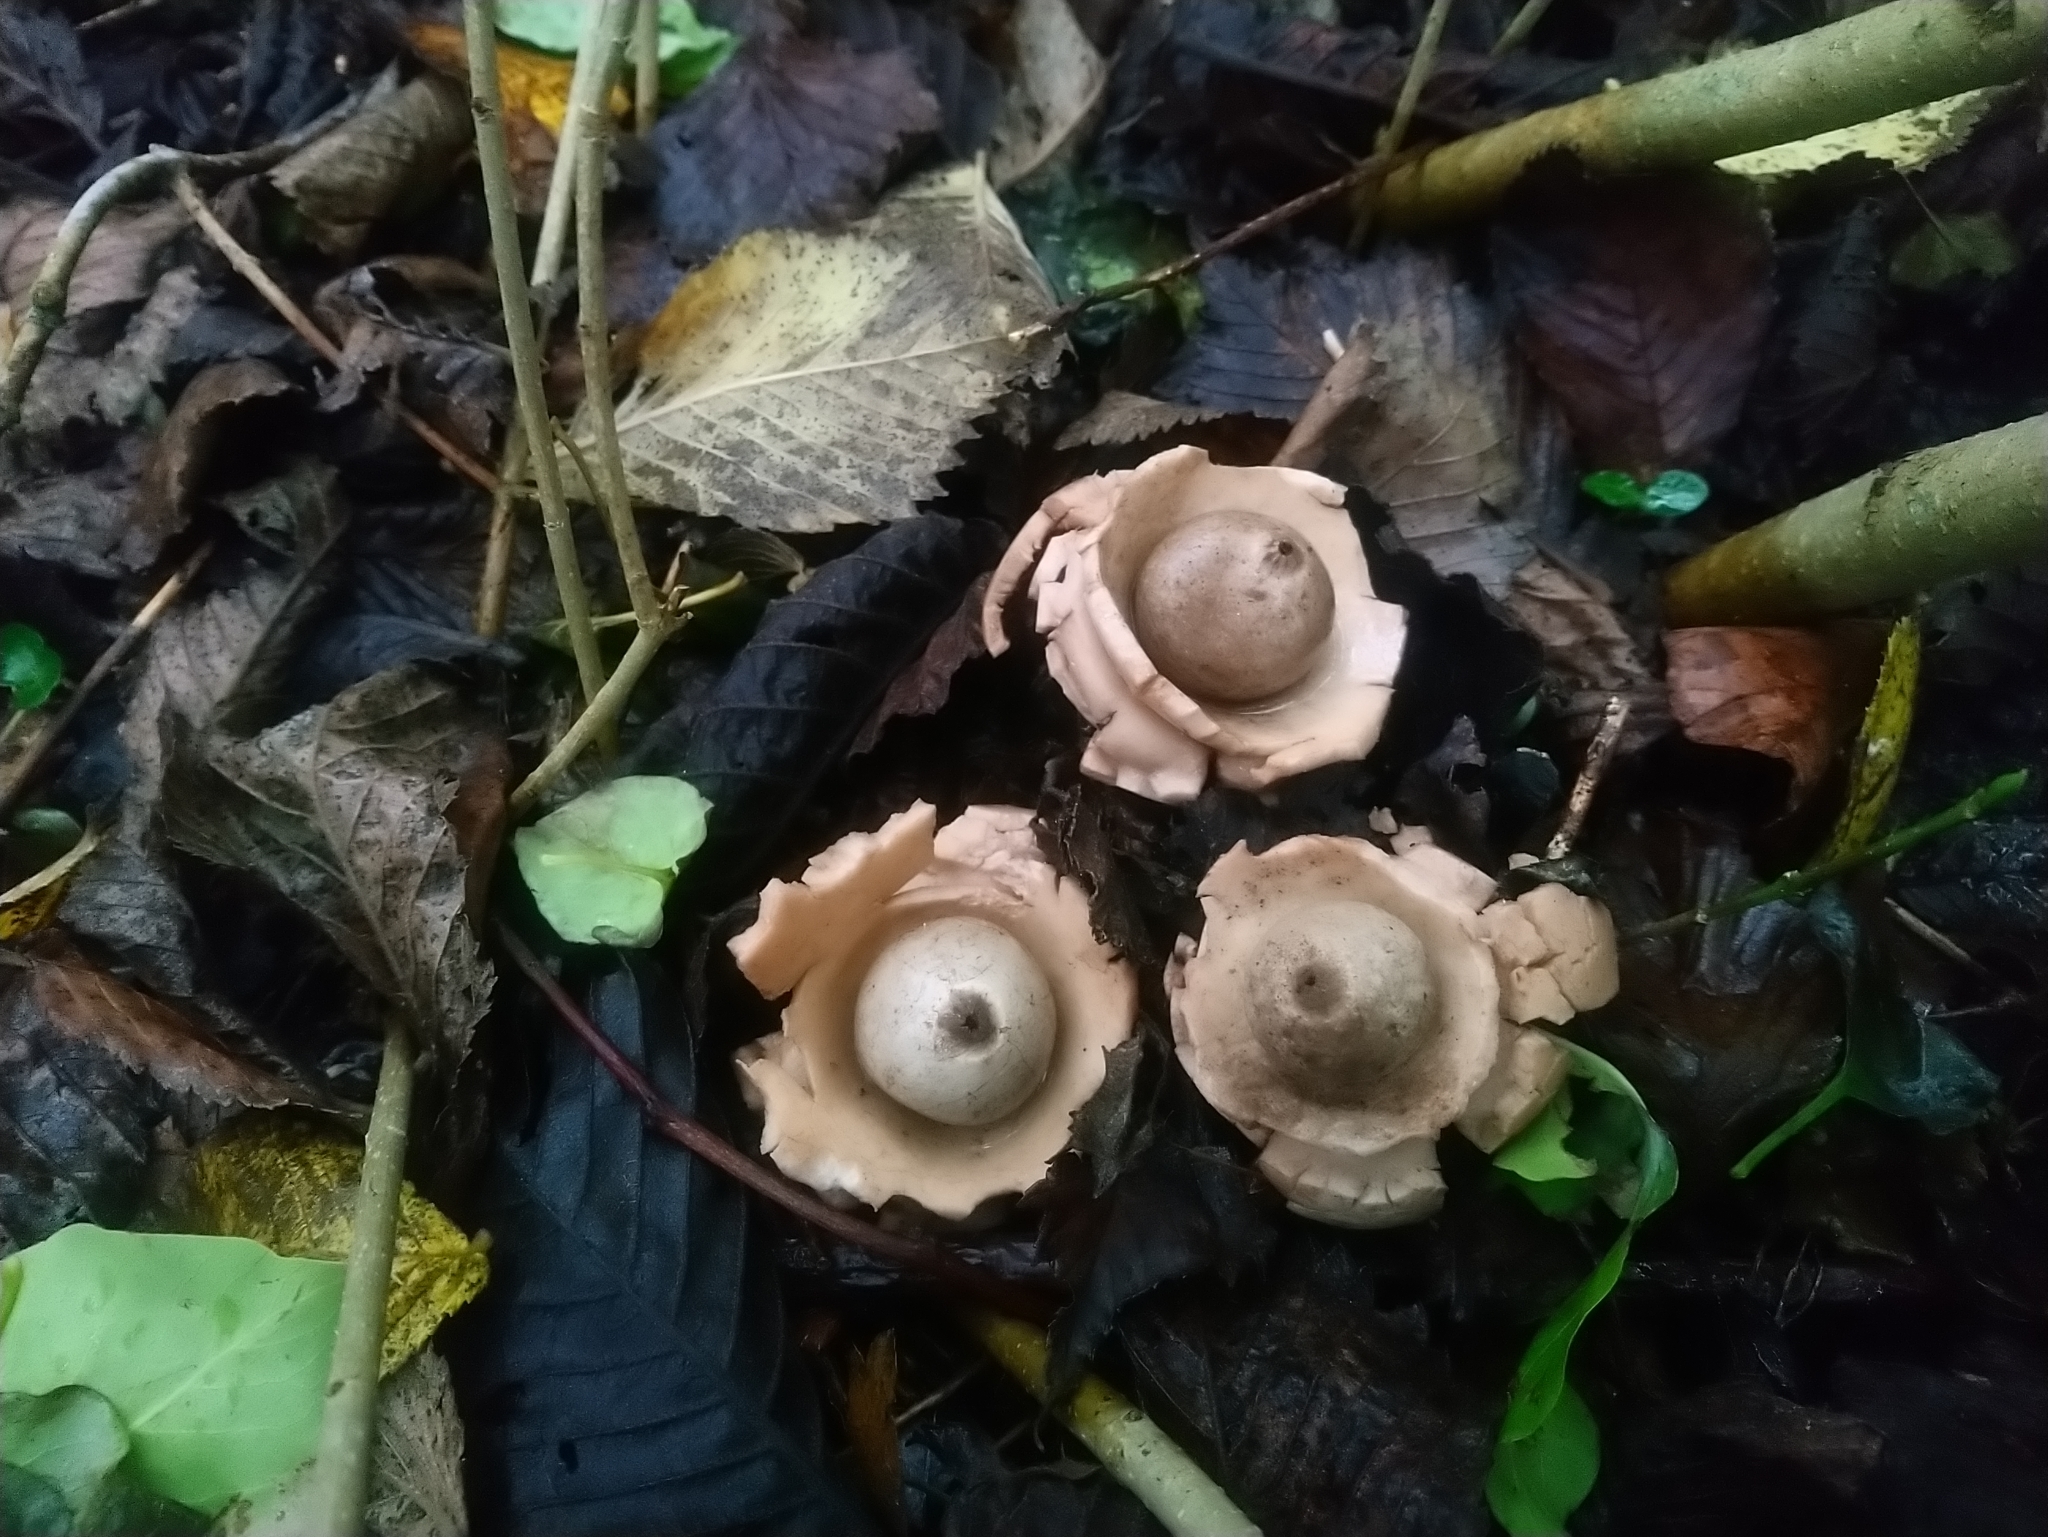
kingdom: Fungi
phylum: Basidiomycota
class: Agaricomycetes
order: Geastrales
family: Geastraceae
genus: Geastrum
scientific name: Geastrum triplex
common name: Collared earthstar
